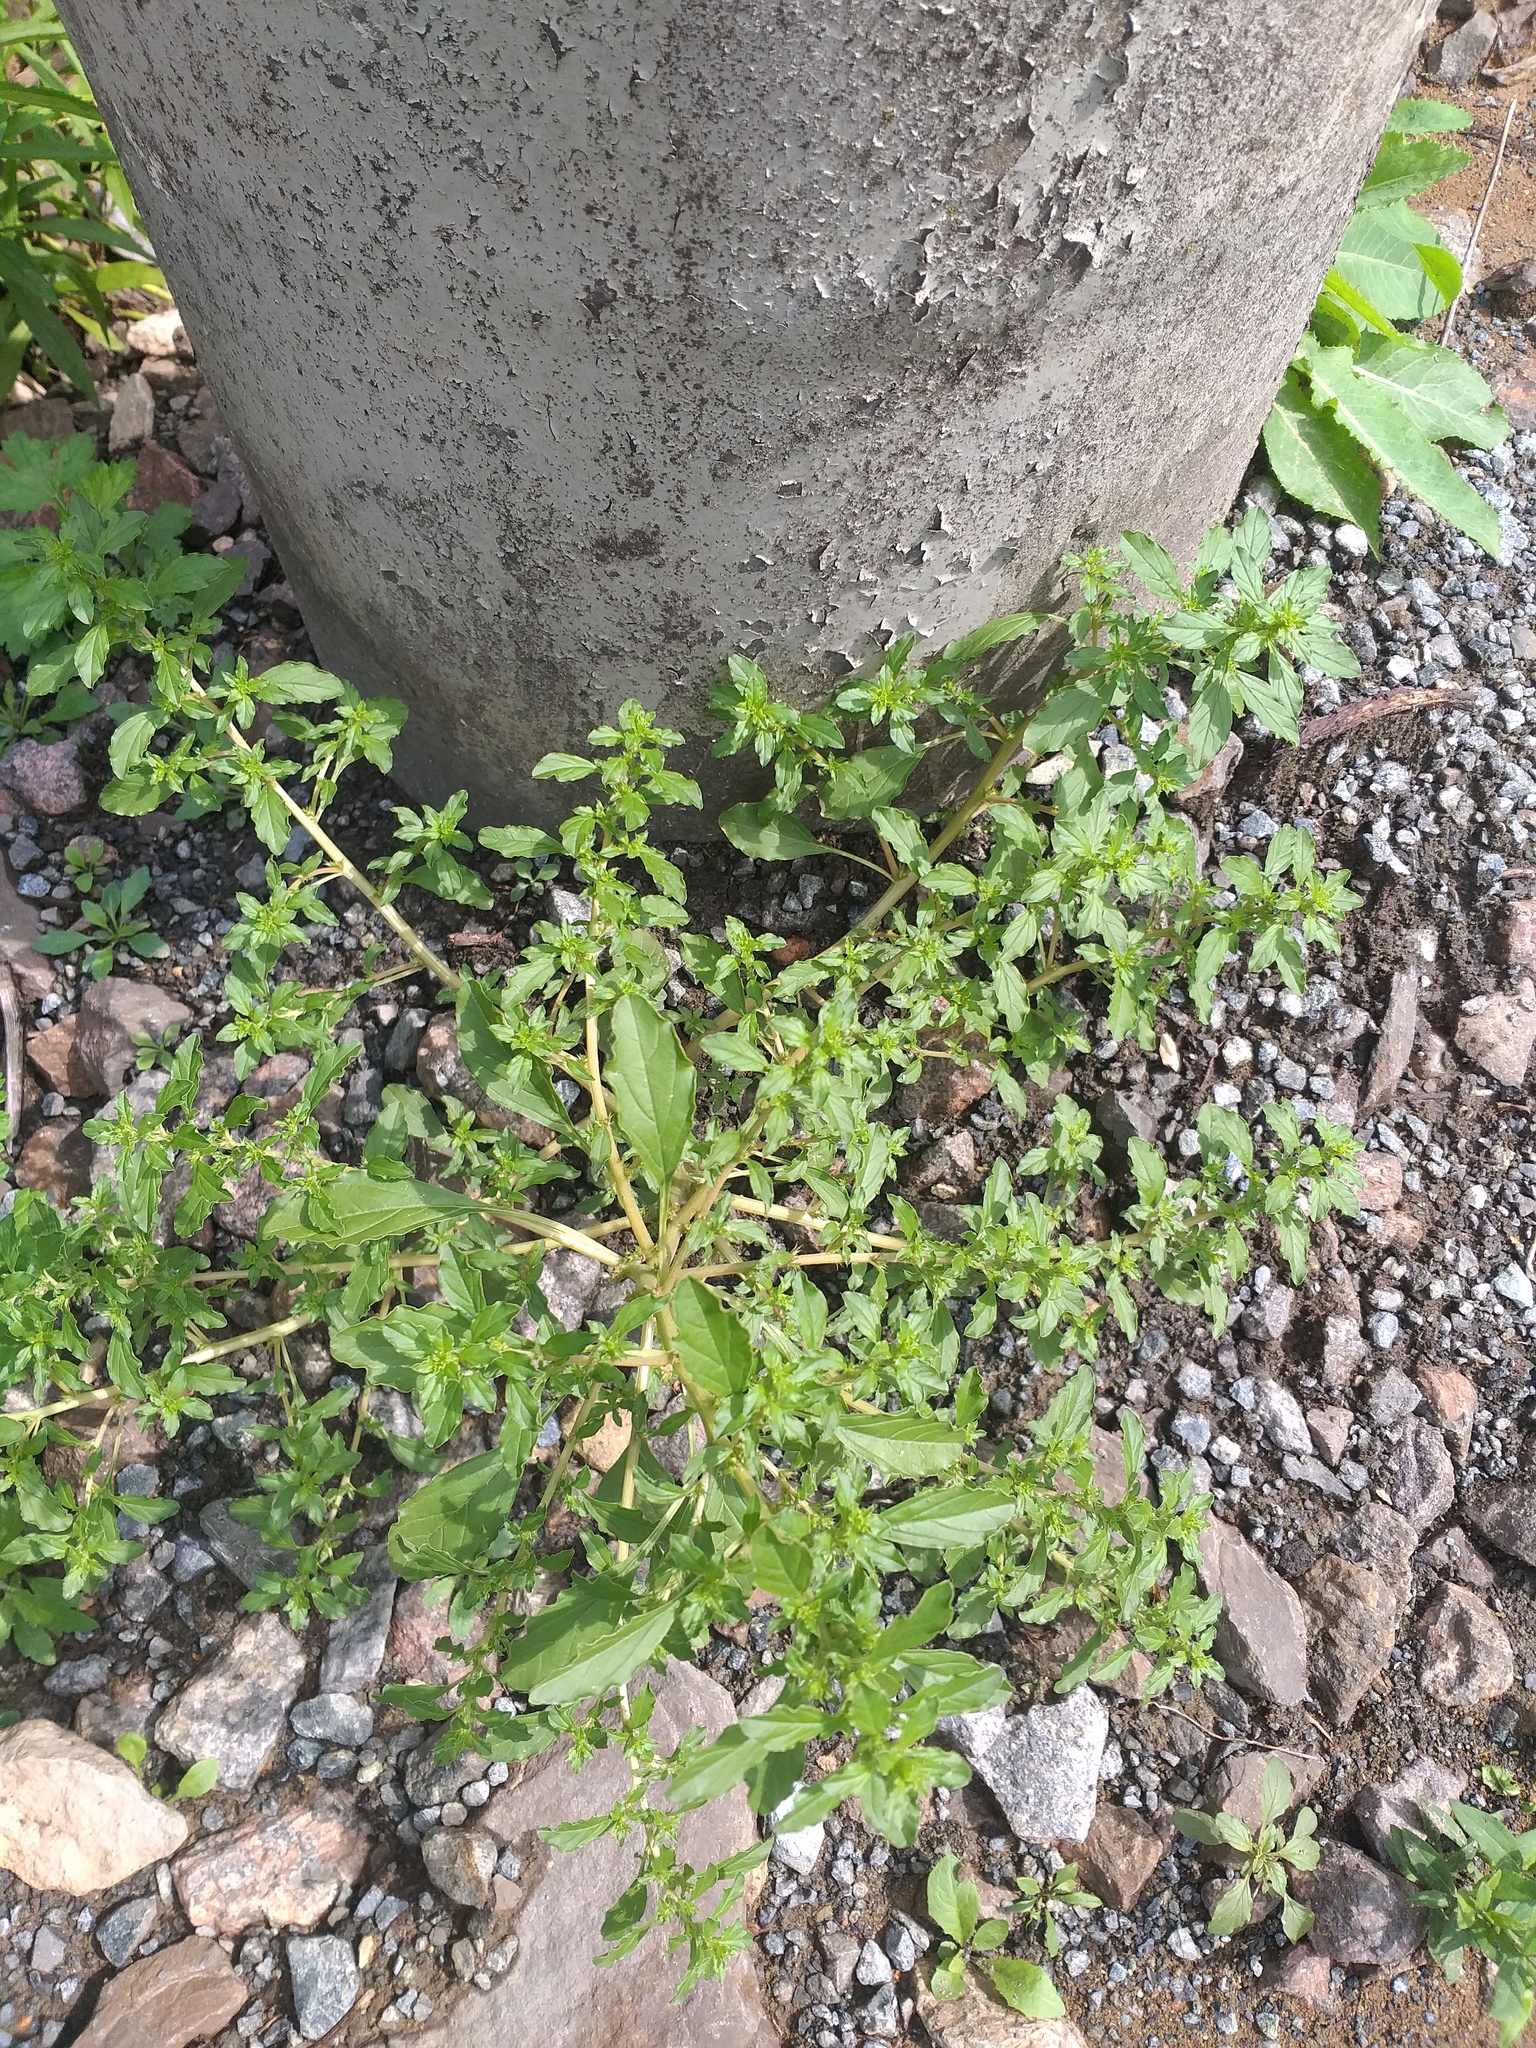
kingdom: Plantae
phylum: Tracheophyta
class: Magnoliopsida
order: Caryophyllales
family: Amaranthaceae
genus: Amaranthus
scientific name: Amaranthus albus
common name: White pigweed
